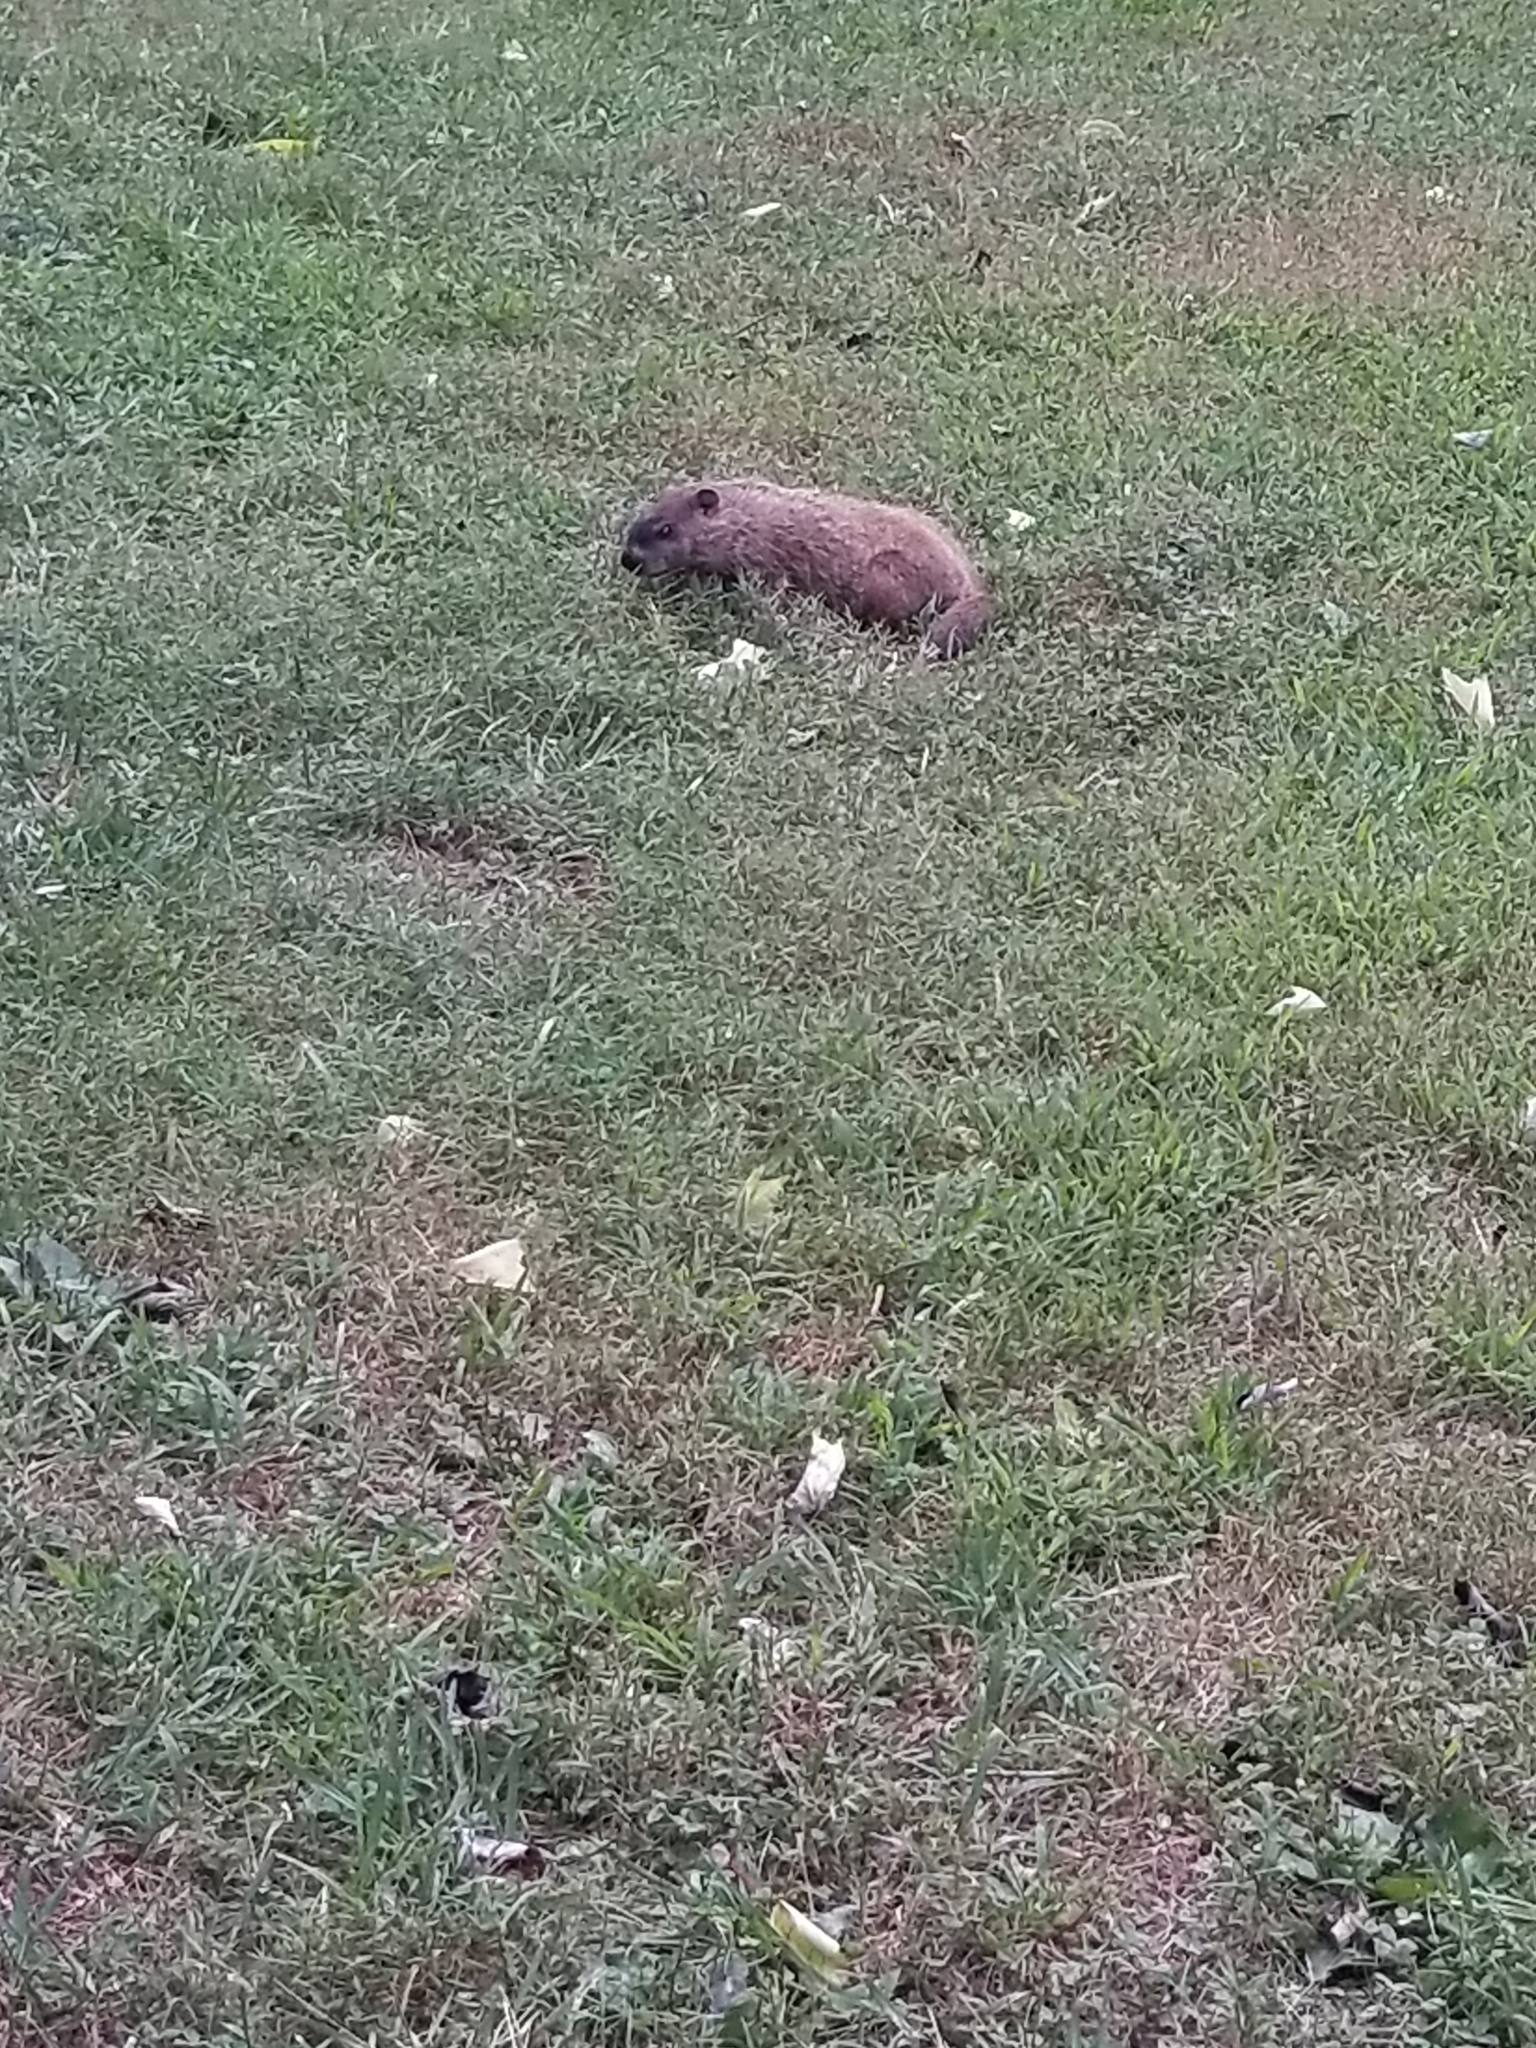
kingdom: Animalia
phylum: Chordata
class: Mammalia
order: Rodentia
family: Sciuridae
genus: Marmota
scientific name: Marmota monax
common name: Groundhog
